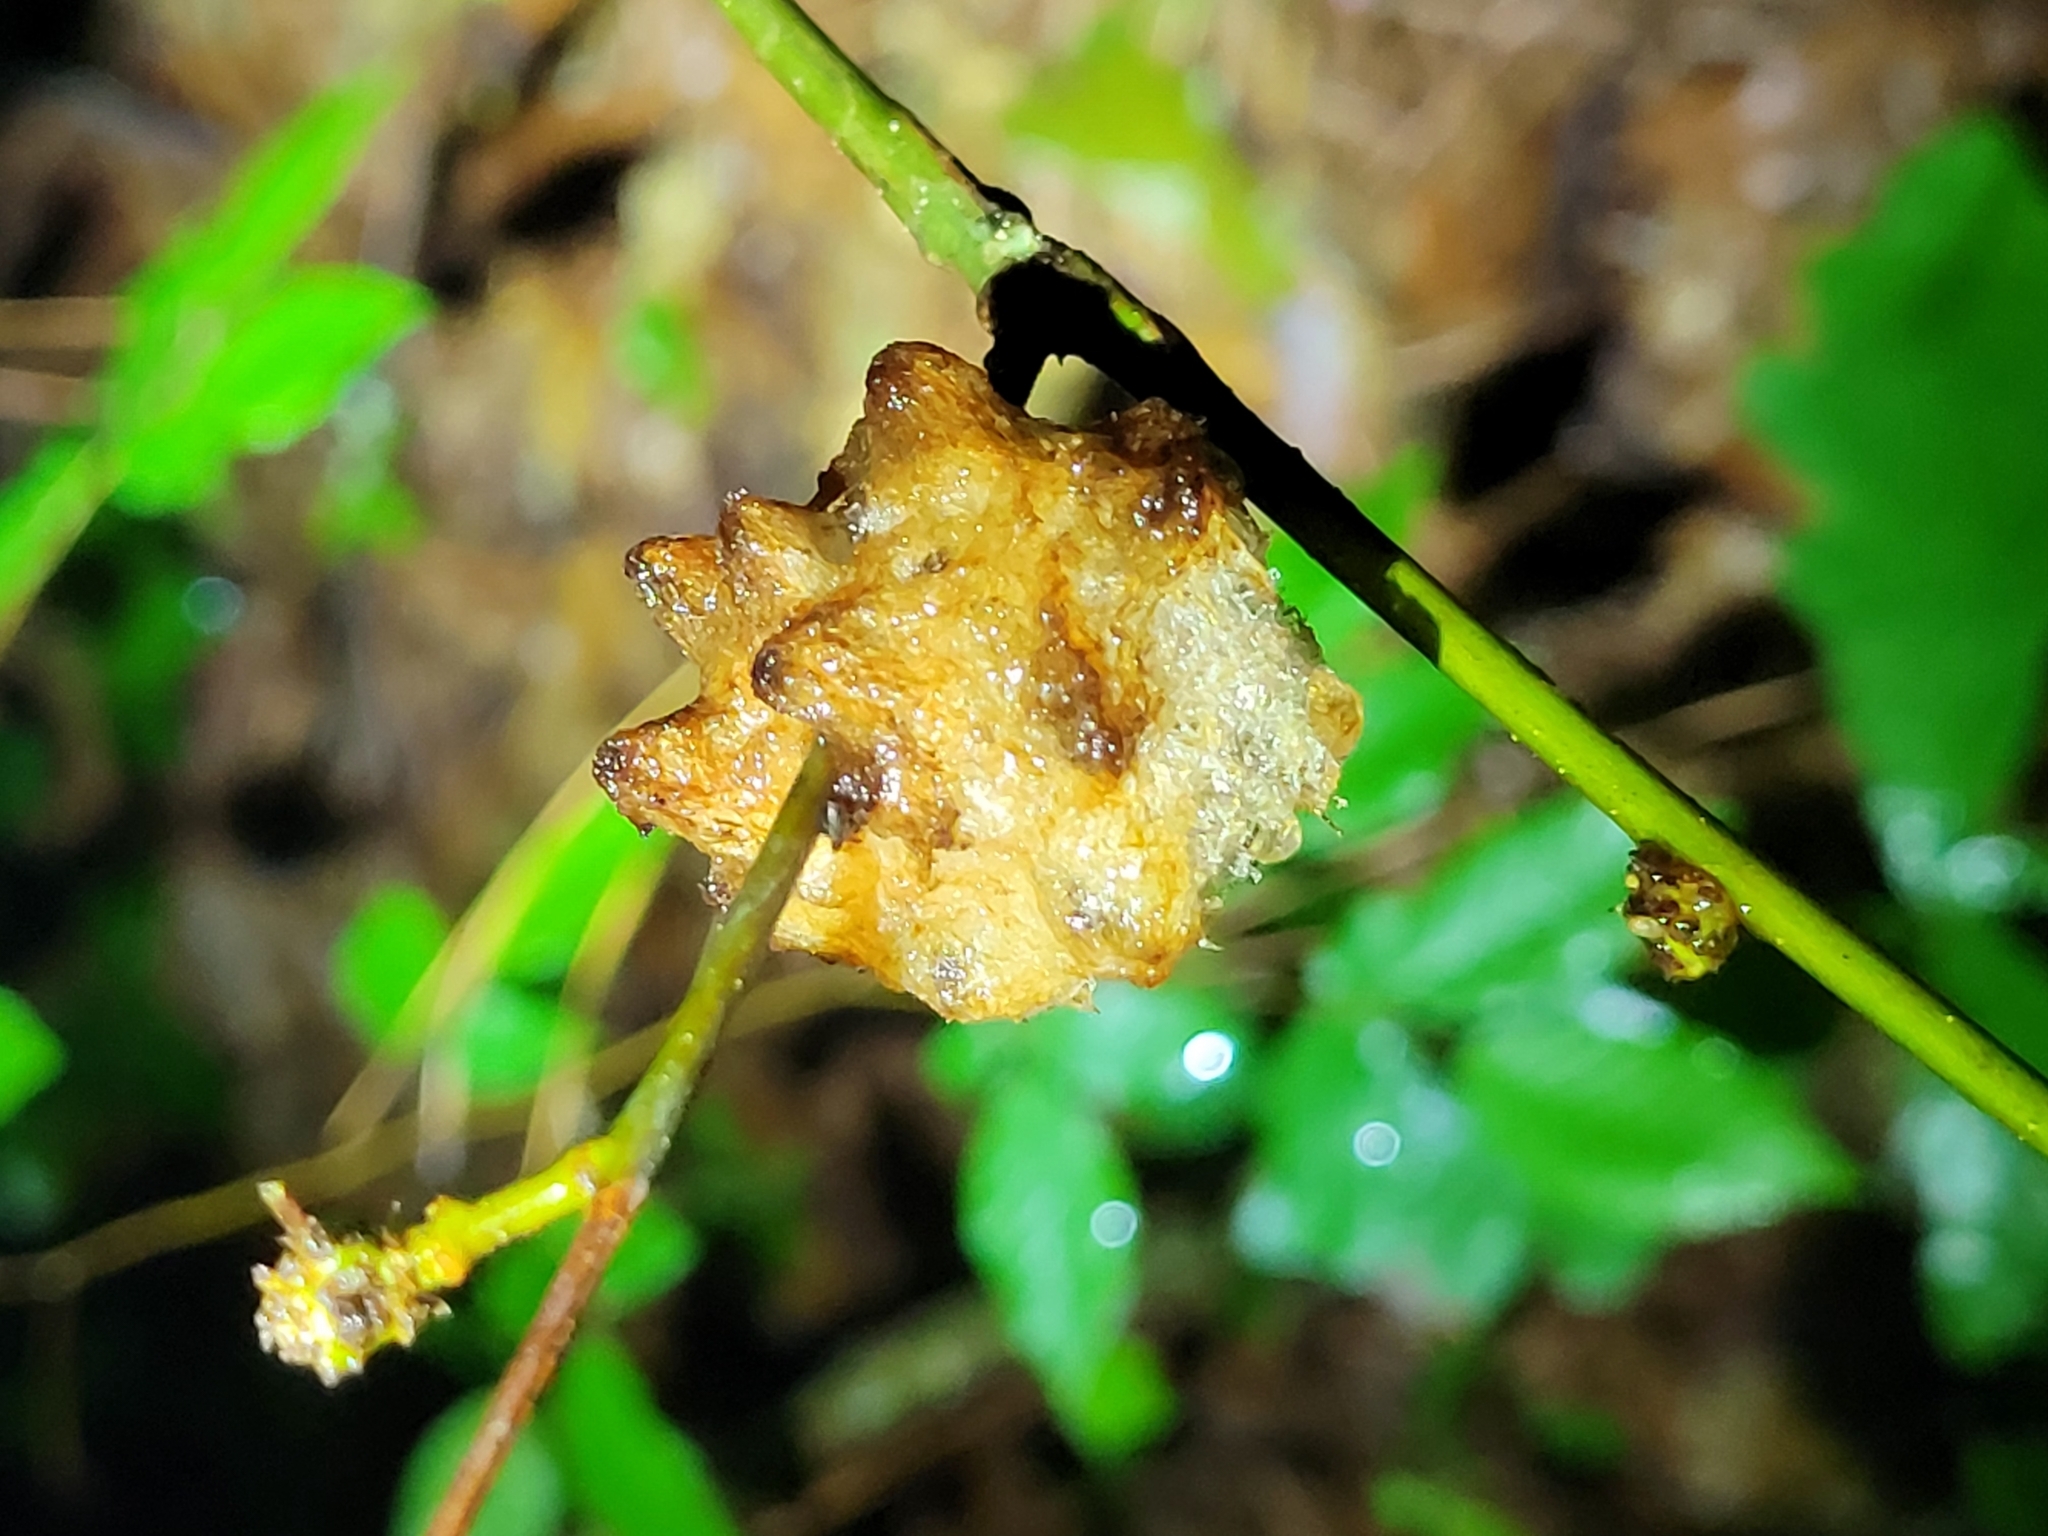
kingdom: Animalia
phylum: Arthropoda
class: Insecta
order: Hymenoptera
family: Cynipidae
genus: Callirhytis
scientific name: Callirhytis
